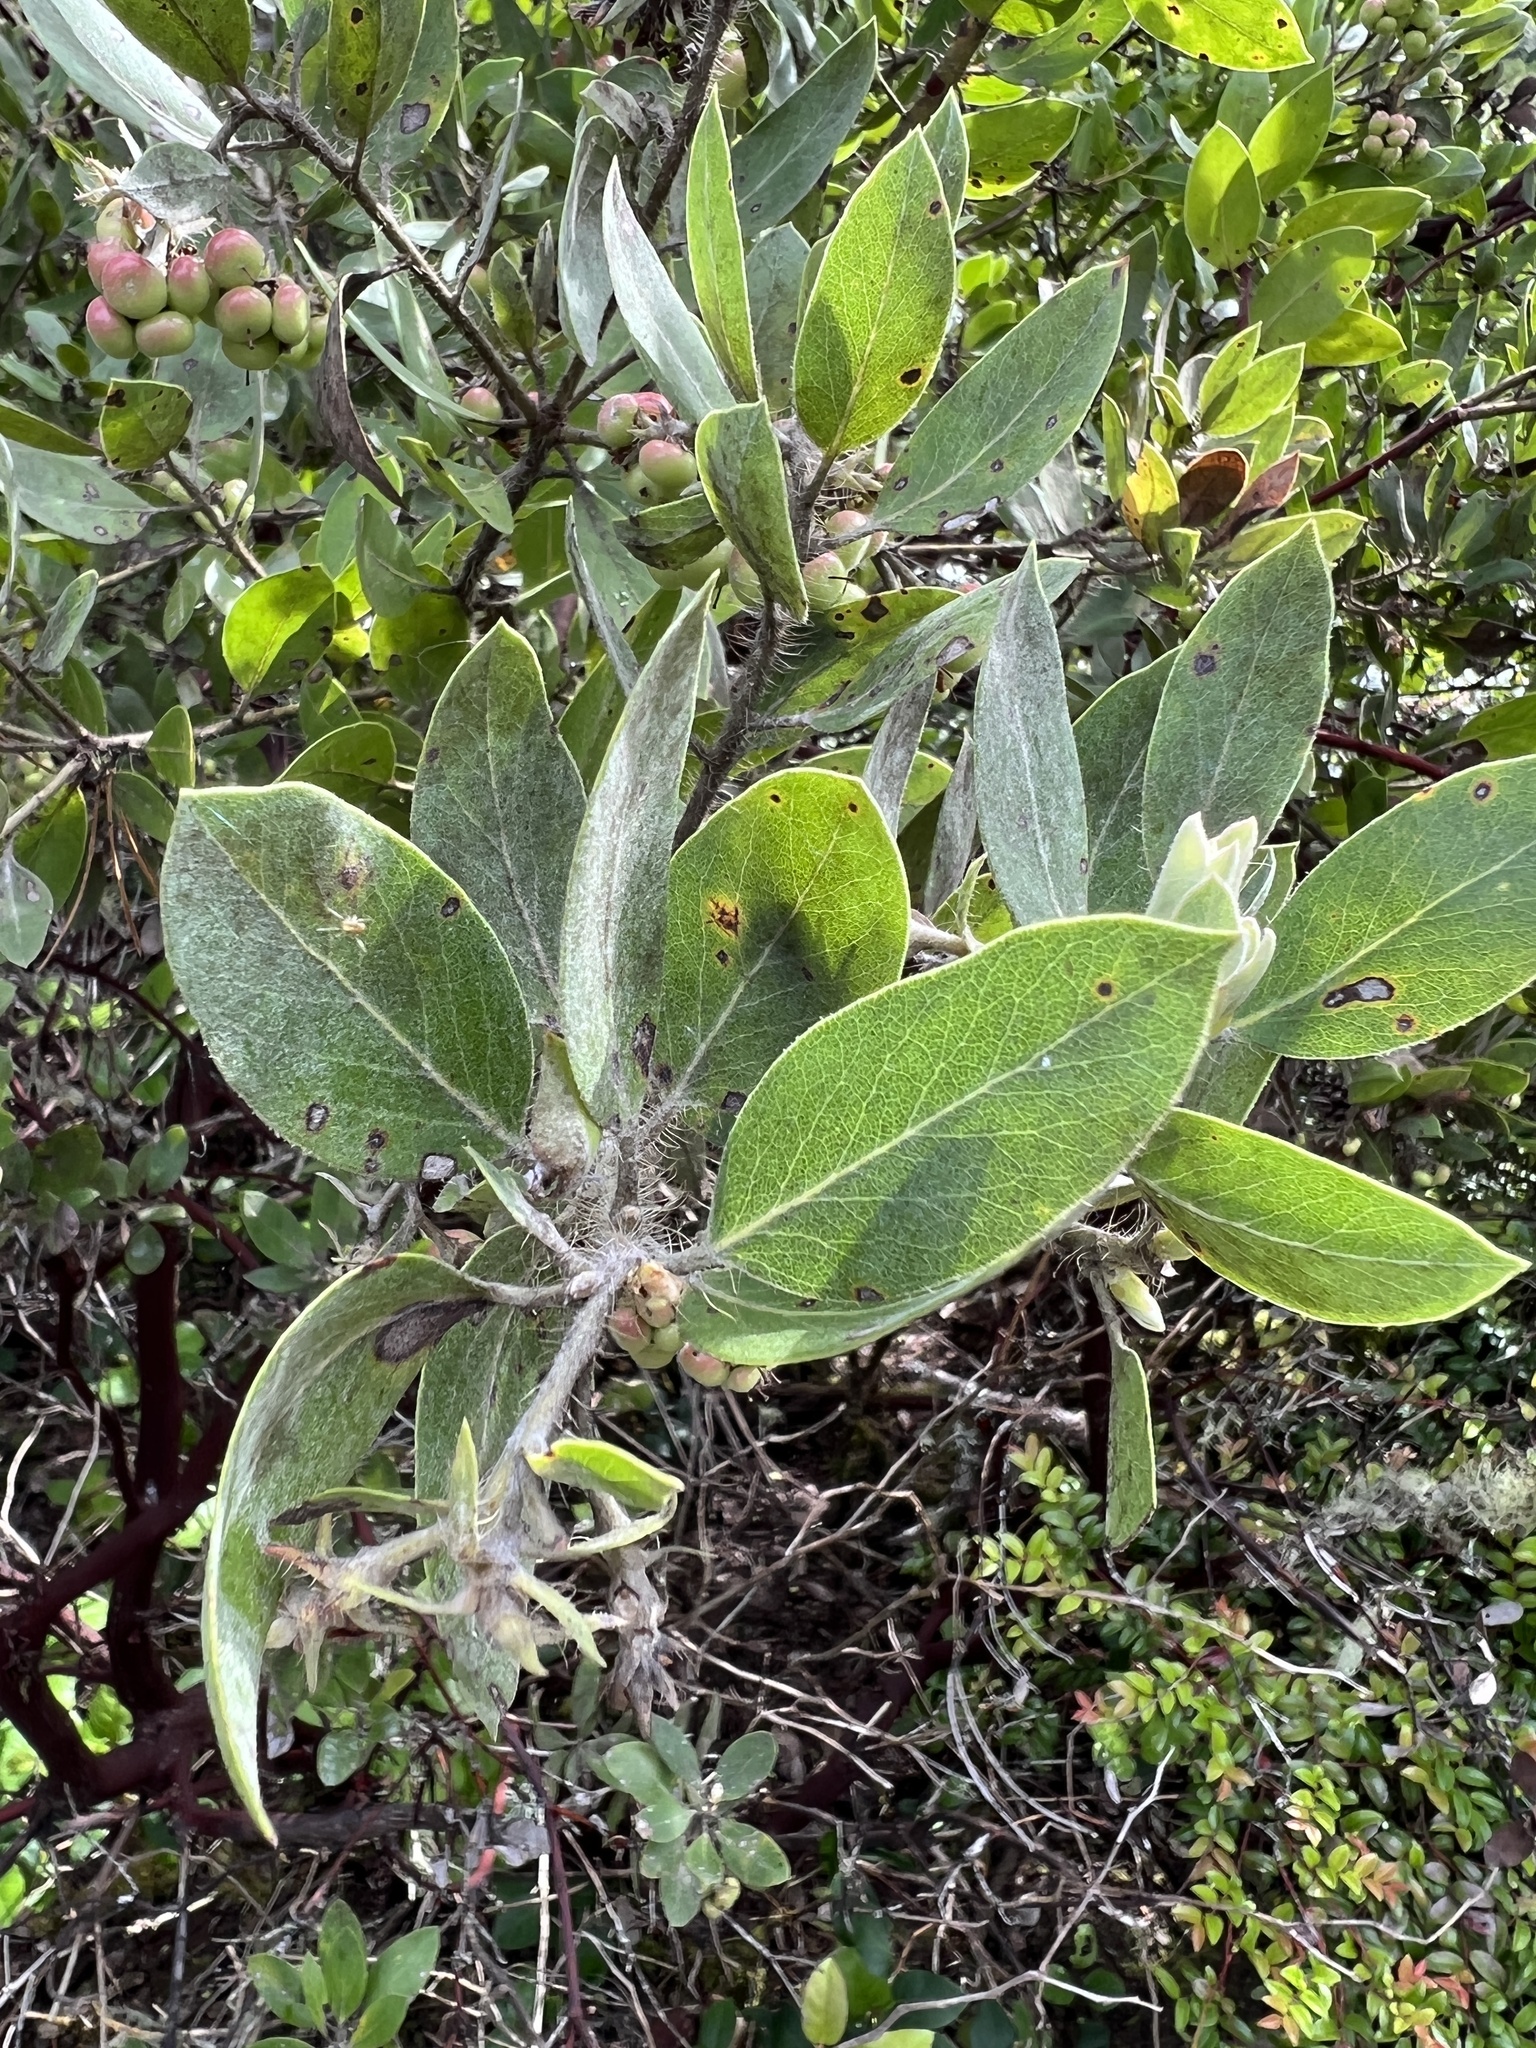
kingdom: Plantae
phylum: Tracheophyta
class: Magnoliopsida
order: Ericales
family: Ericaceae
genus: Arctostaphylos
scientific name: Arctostaphylos columbiana
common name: Bristly bearberry
